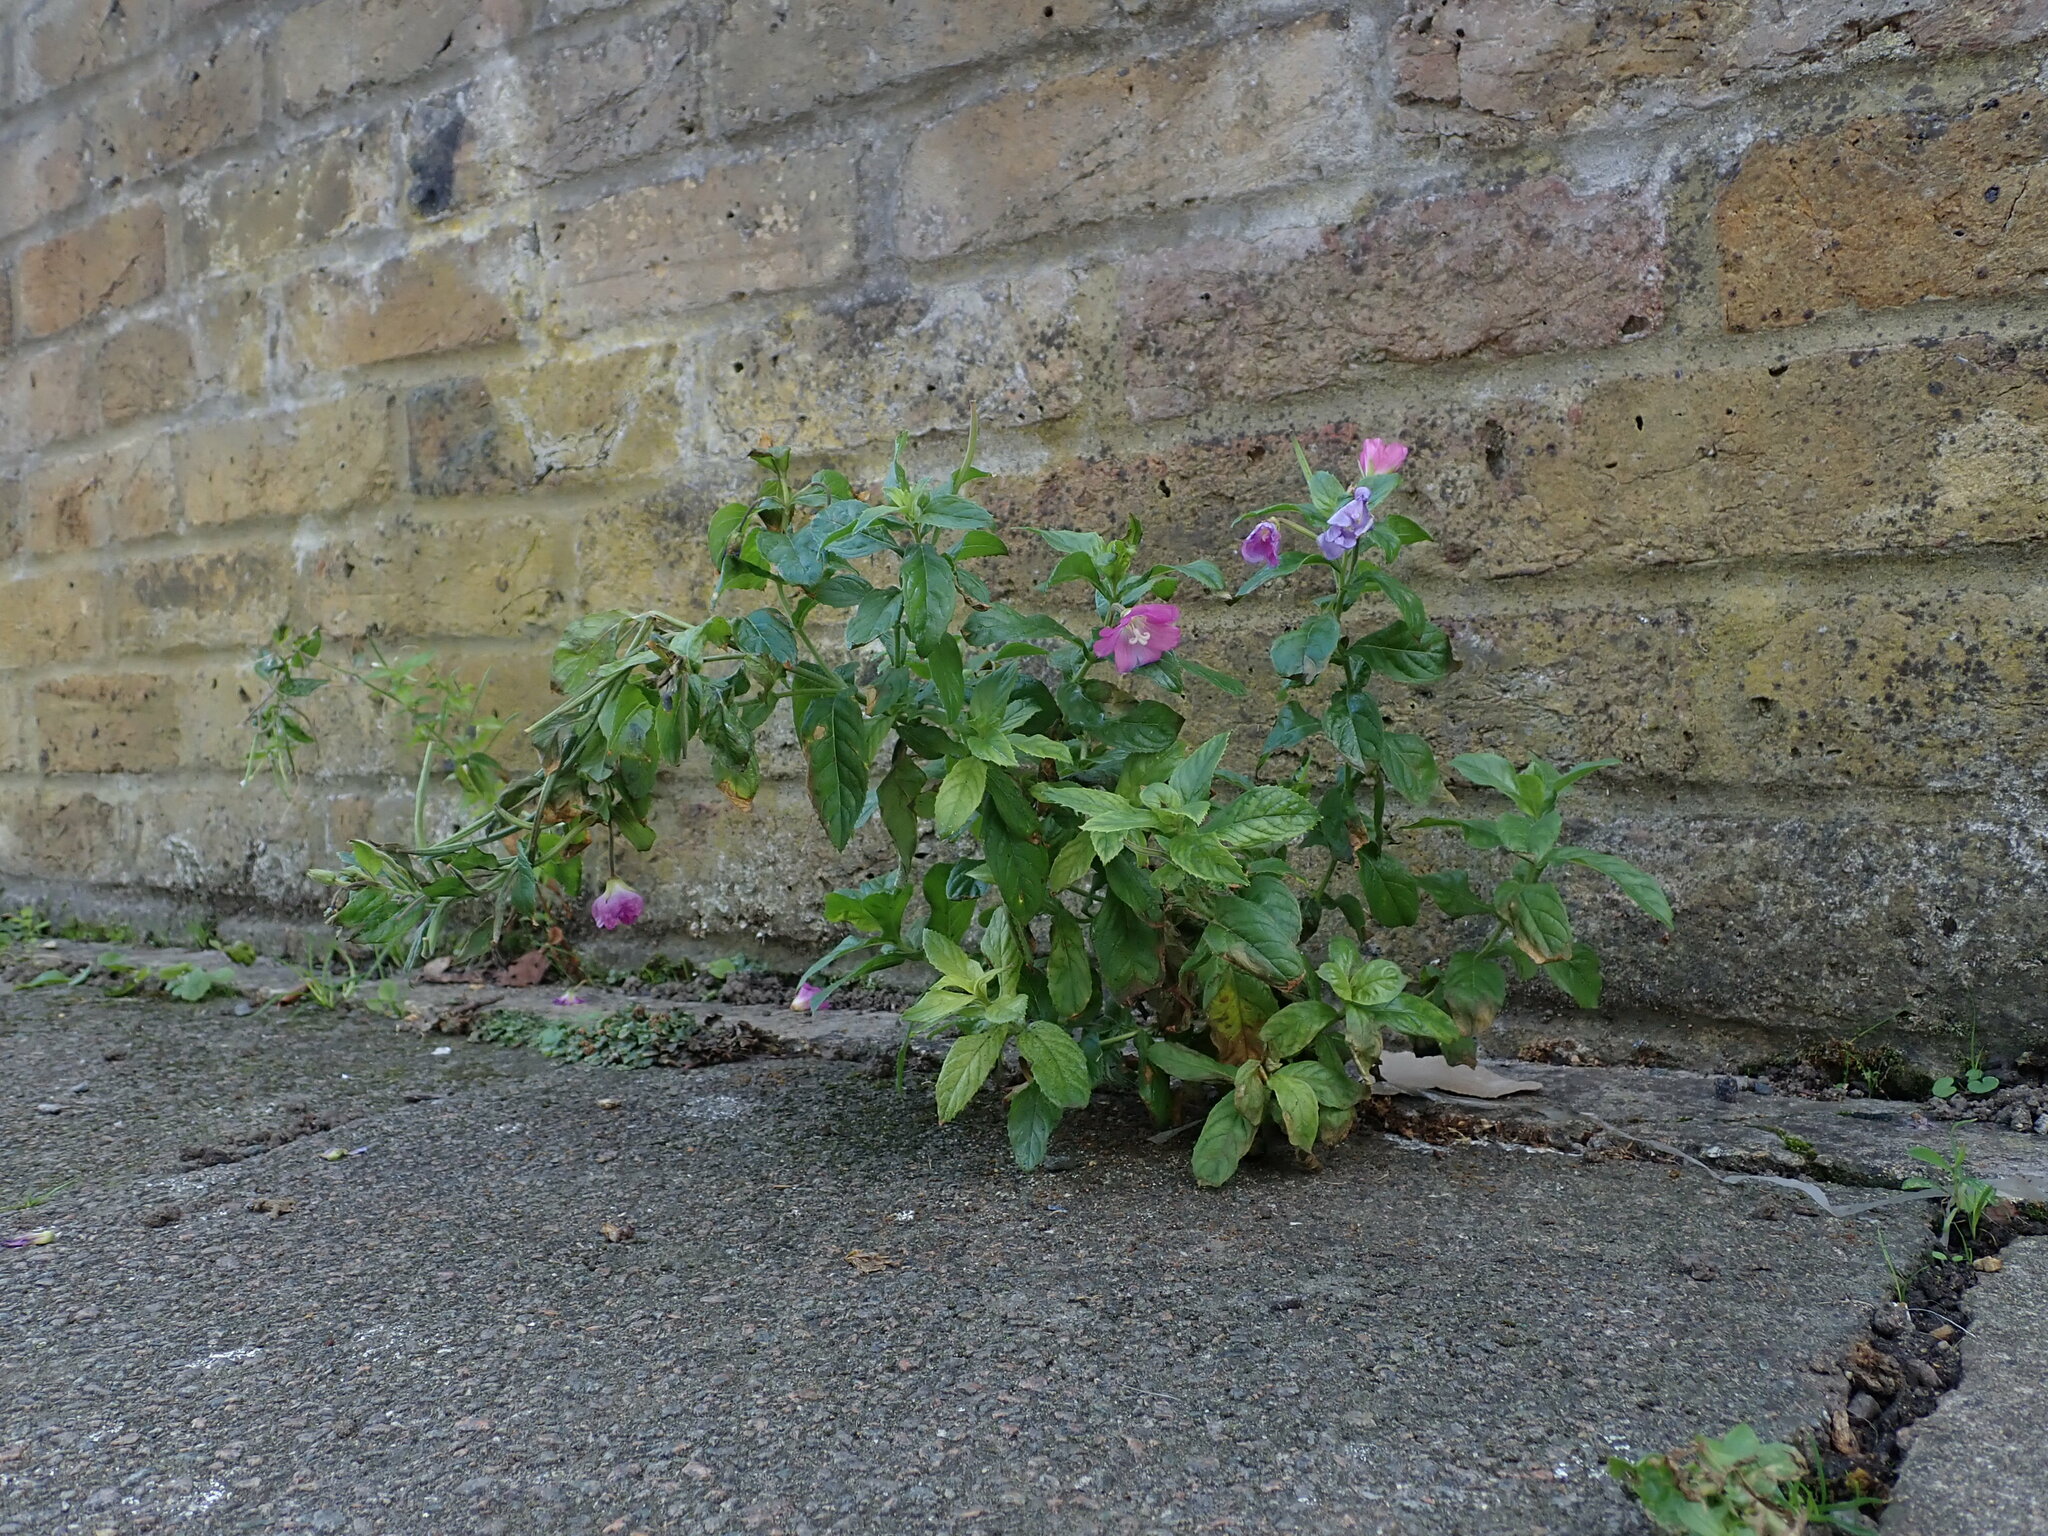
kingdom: Plantae
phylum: Tracheophyta
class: Magnoliopsida
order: Myrtales
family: Onagraceae
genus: Epilobium
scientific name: Epilobium hirsutum
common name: Great willowherb
